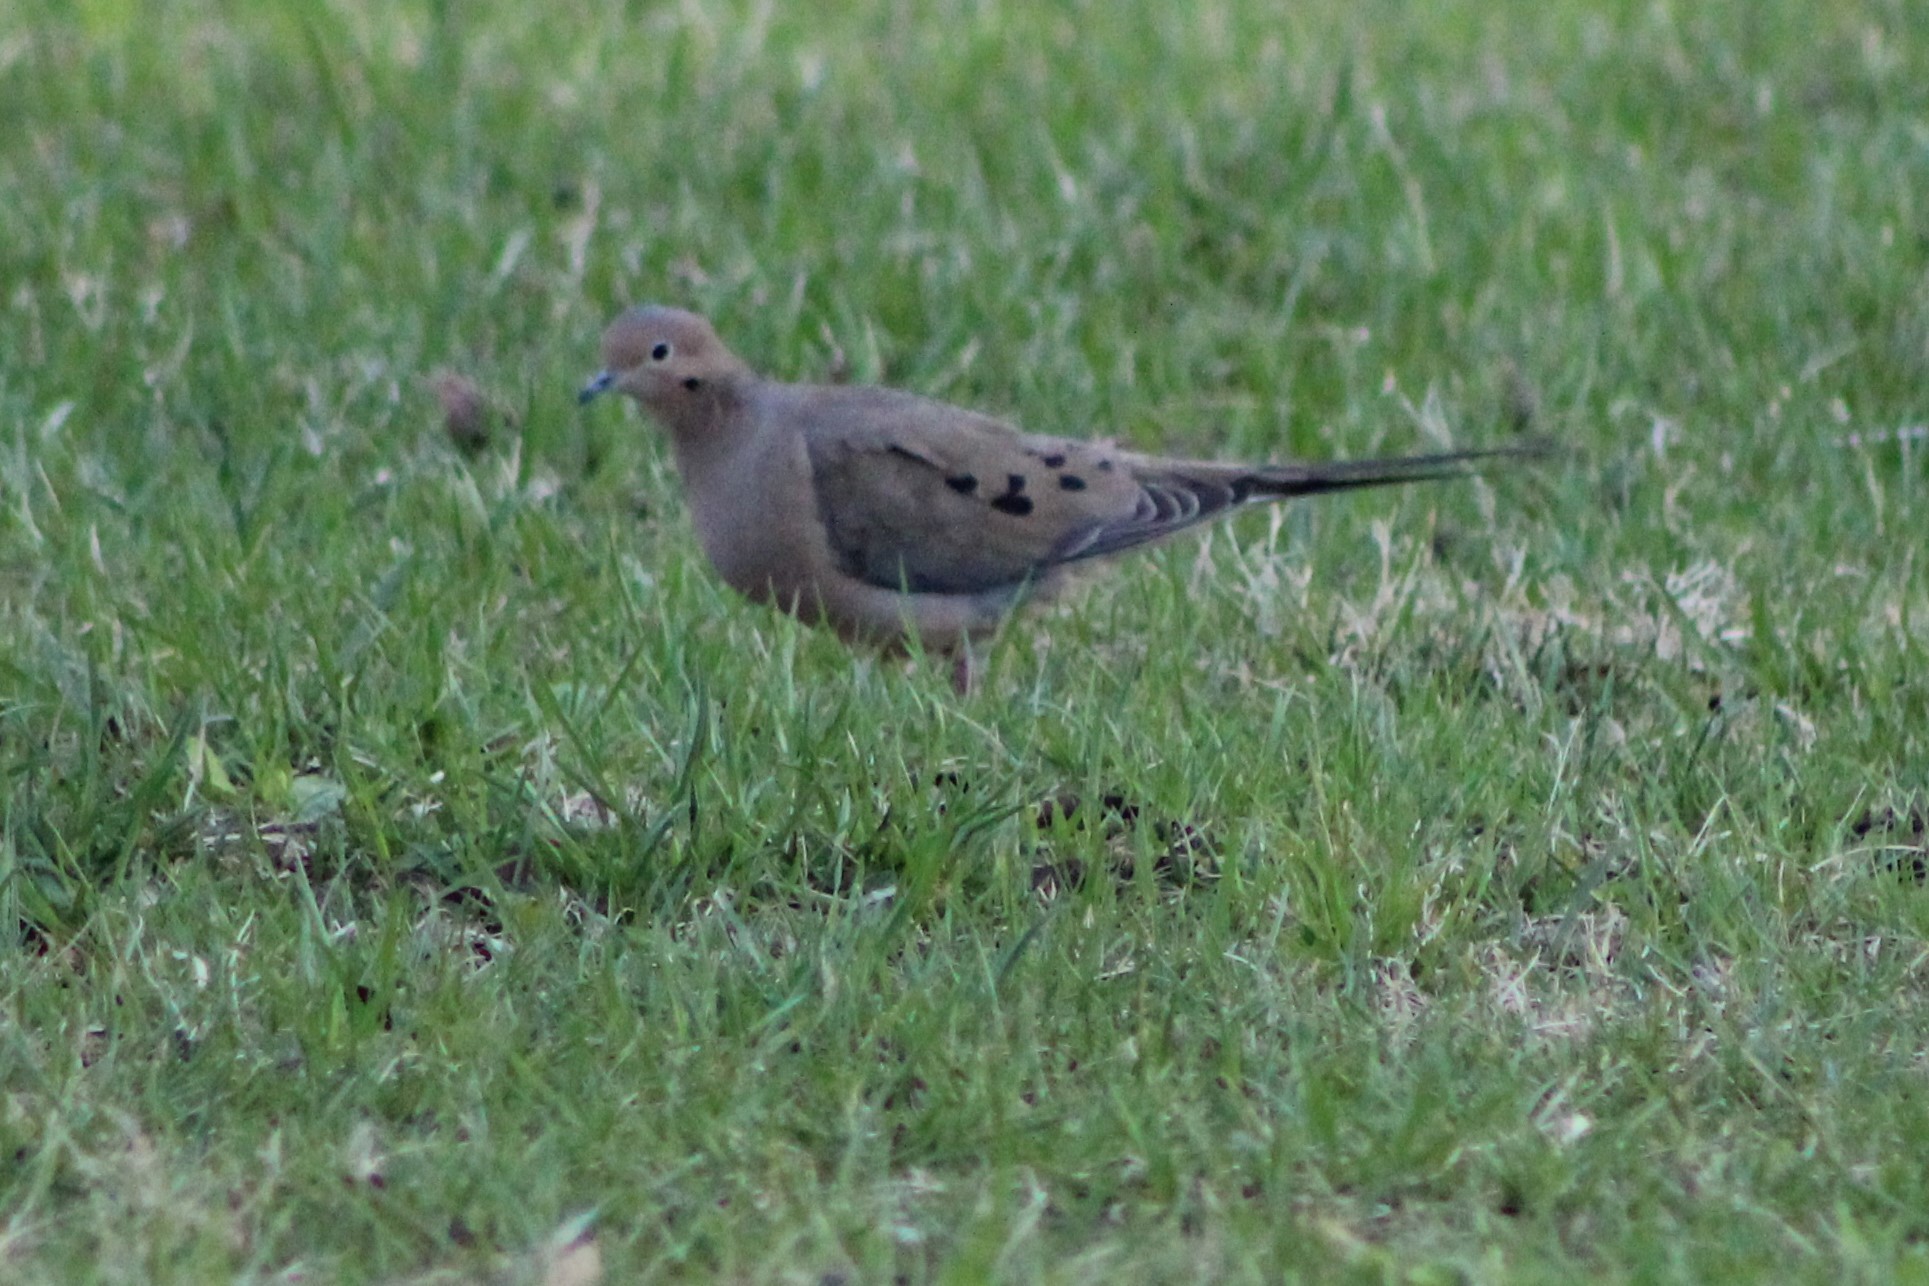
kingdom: Animalia
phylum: Chordata
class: Aves
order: Columbiformes
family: Columbidae
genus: Zenaida
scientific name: Zenaida macroura
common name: Mourning dove
